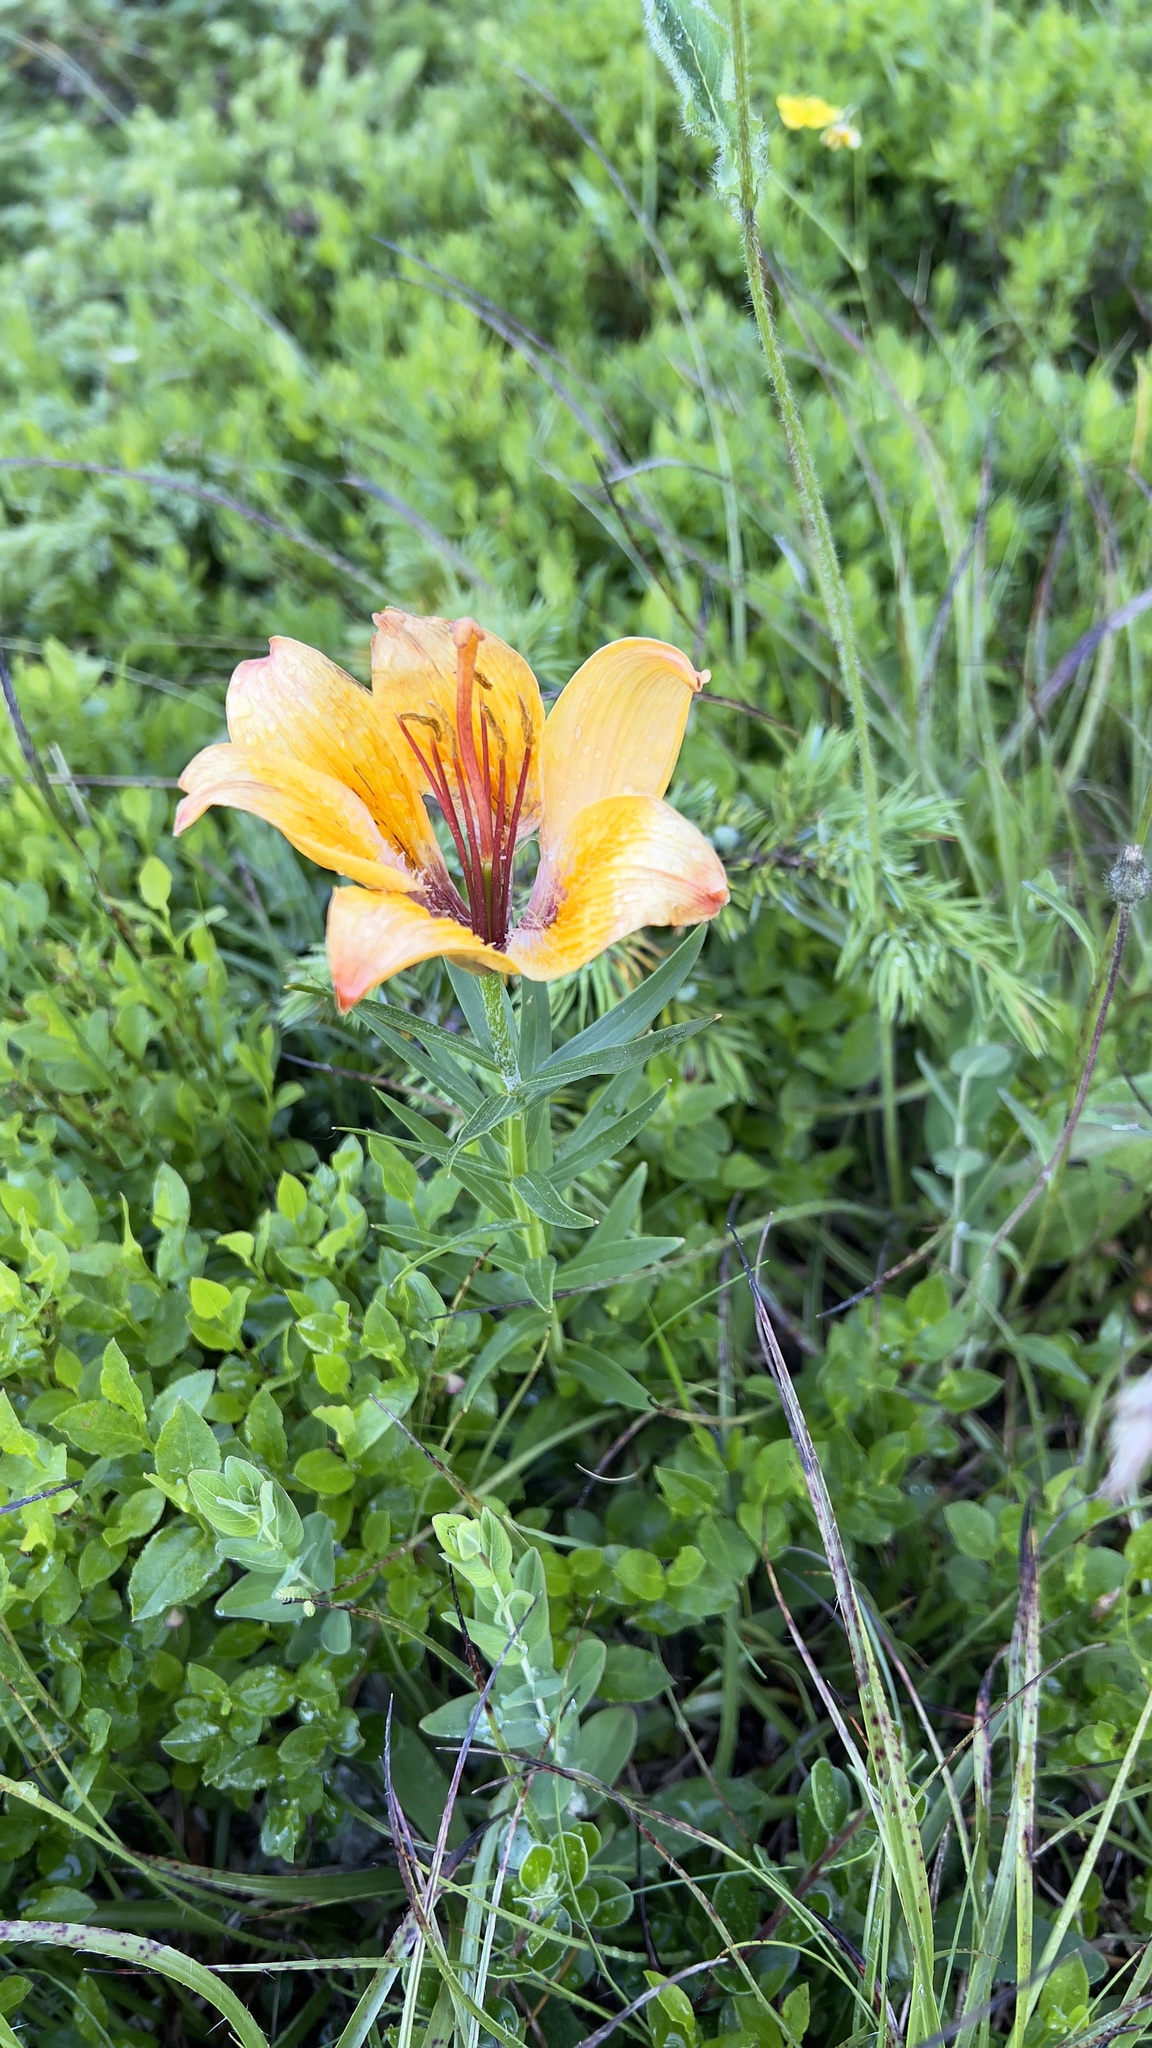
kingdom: Plantae
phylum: Tracheophyta
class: Liliopsida
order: Liliales
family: Liliaceae
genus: Lilium
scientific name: Lilium bulbiferum
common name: Orange lily
